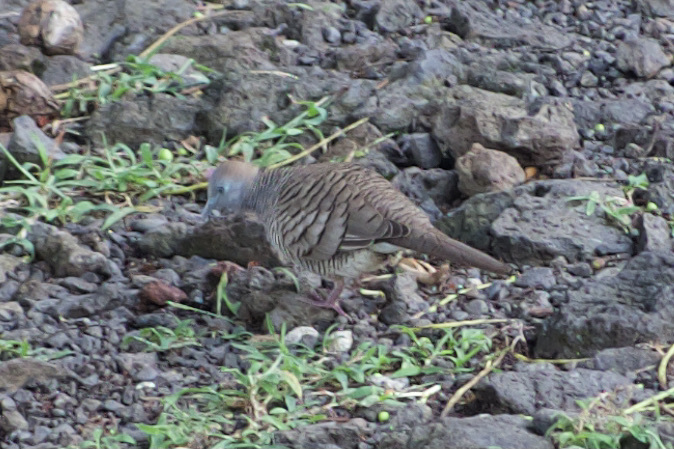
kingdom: Animalia
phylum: Chordata
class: Aves
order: Columbiformes
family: Columbidae
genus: Geopelia
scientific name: Geopelia striata
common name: Zebra dove
